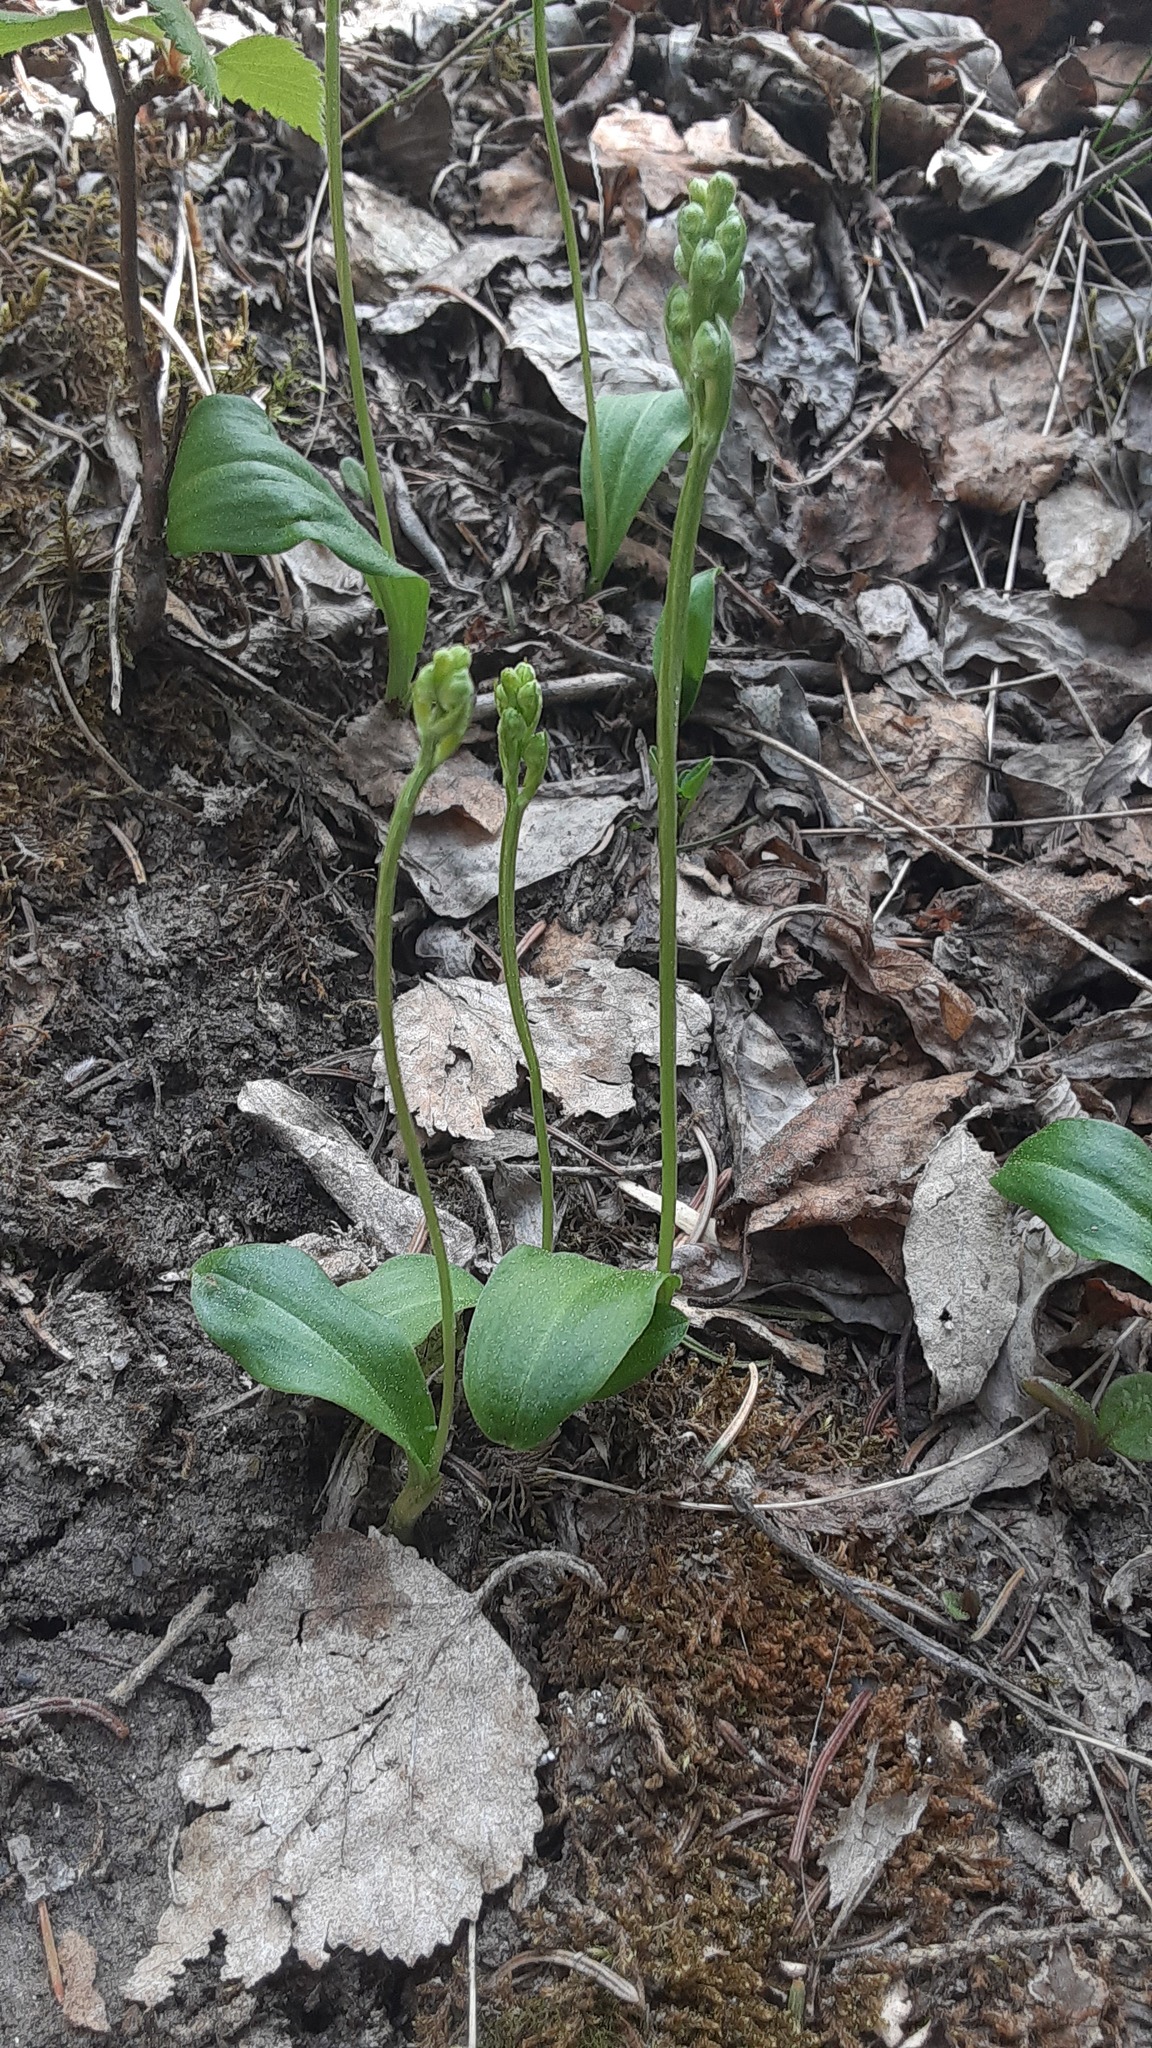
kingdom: Plantae
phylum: Tracheophyta
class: Liliopsida
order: Asparagales
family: Orchidaceae
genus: Platanthera
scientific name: Platanthera obtusata
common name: Blunt bog orchid
